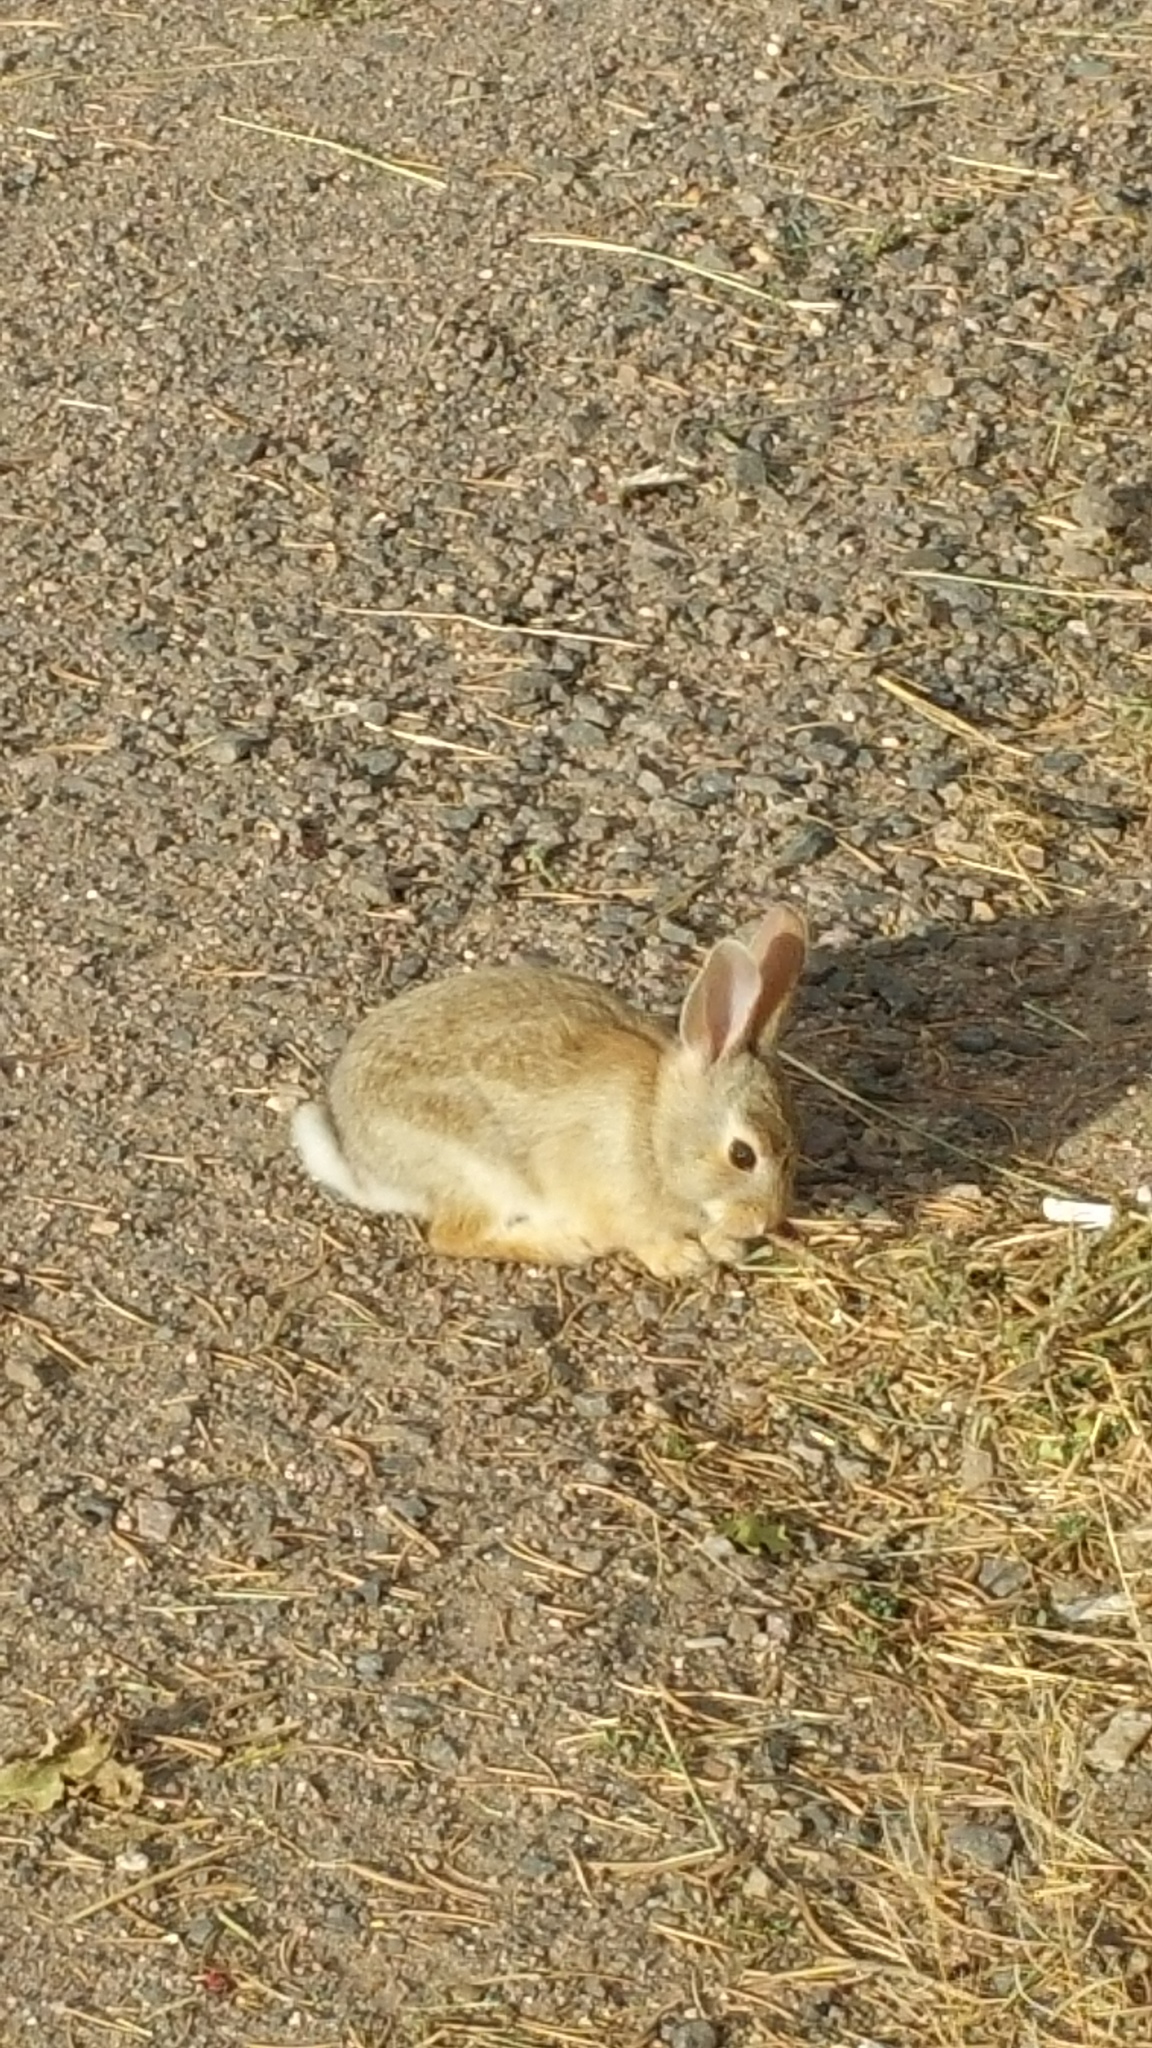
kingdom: Animalia
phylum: Chordata
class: Mammalia
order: Lagomorpha
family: Leporidae
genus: Sylvilagus
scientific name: Sylvilagus audubonii
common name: Desert cottontail
